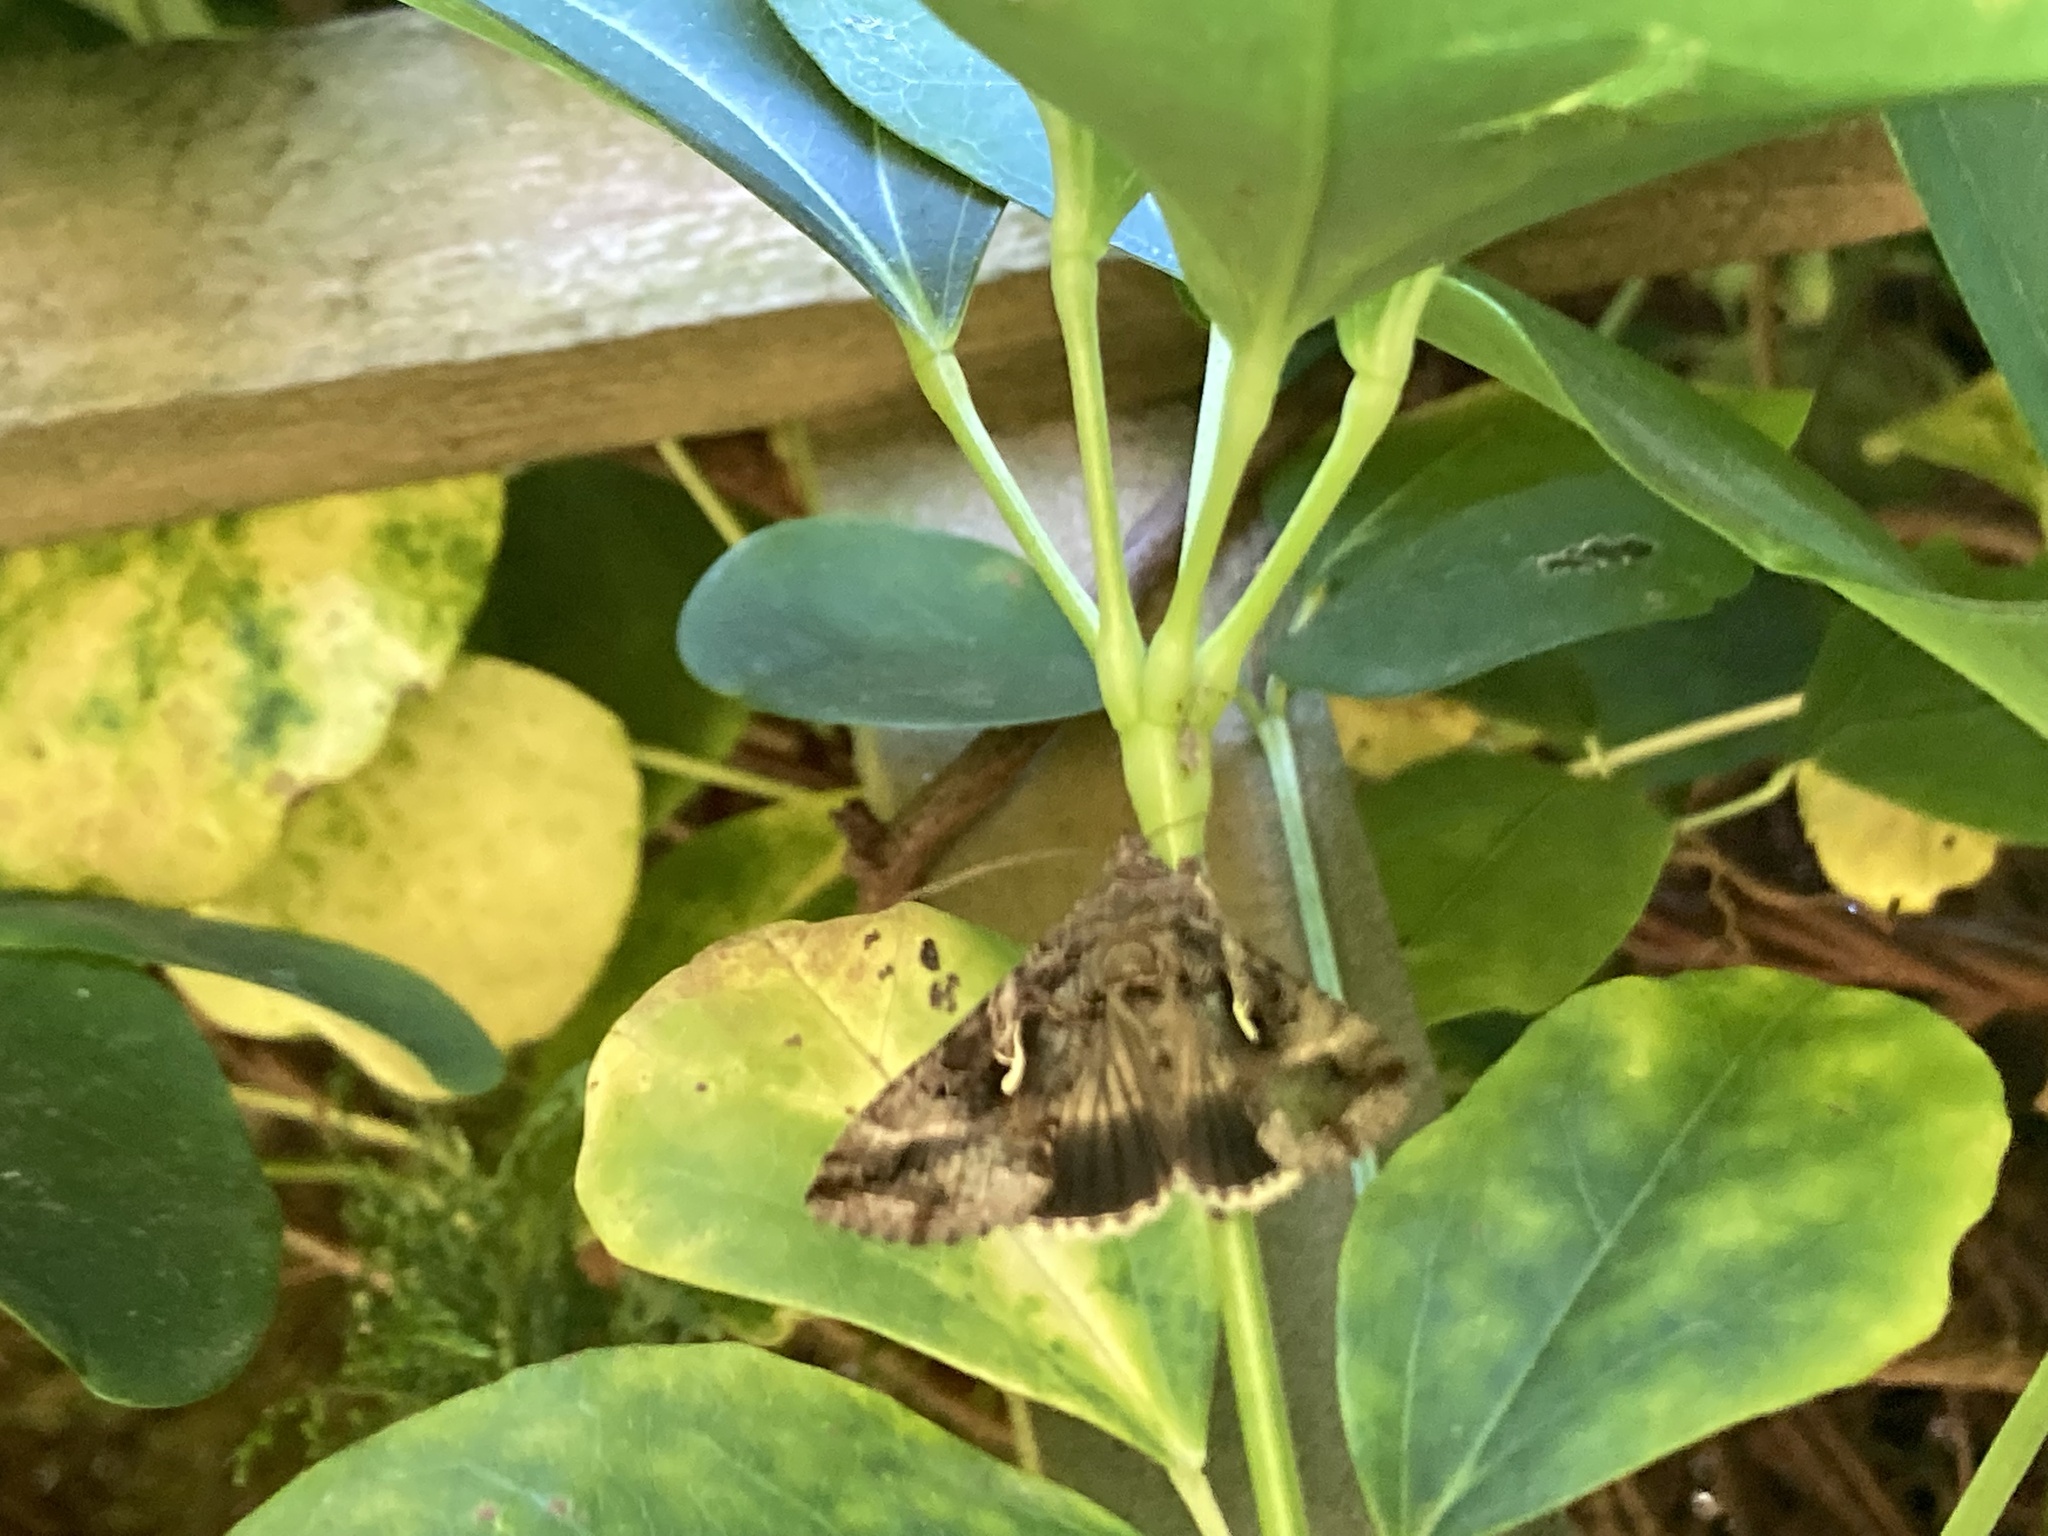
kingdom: Animalia
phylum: Arthropoda
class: Insecta
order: Lepidoptera
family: Noctuidae
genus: Autographa
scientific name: Autographa gamma
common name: Silver y
